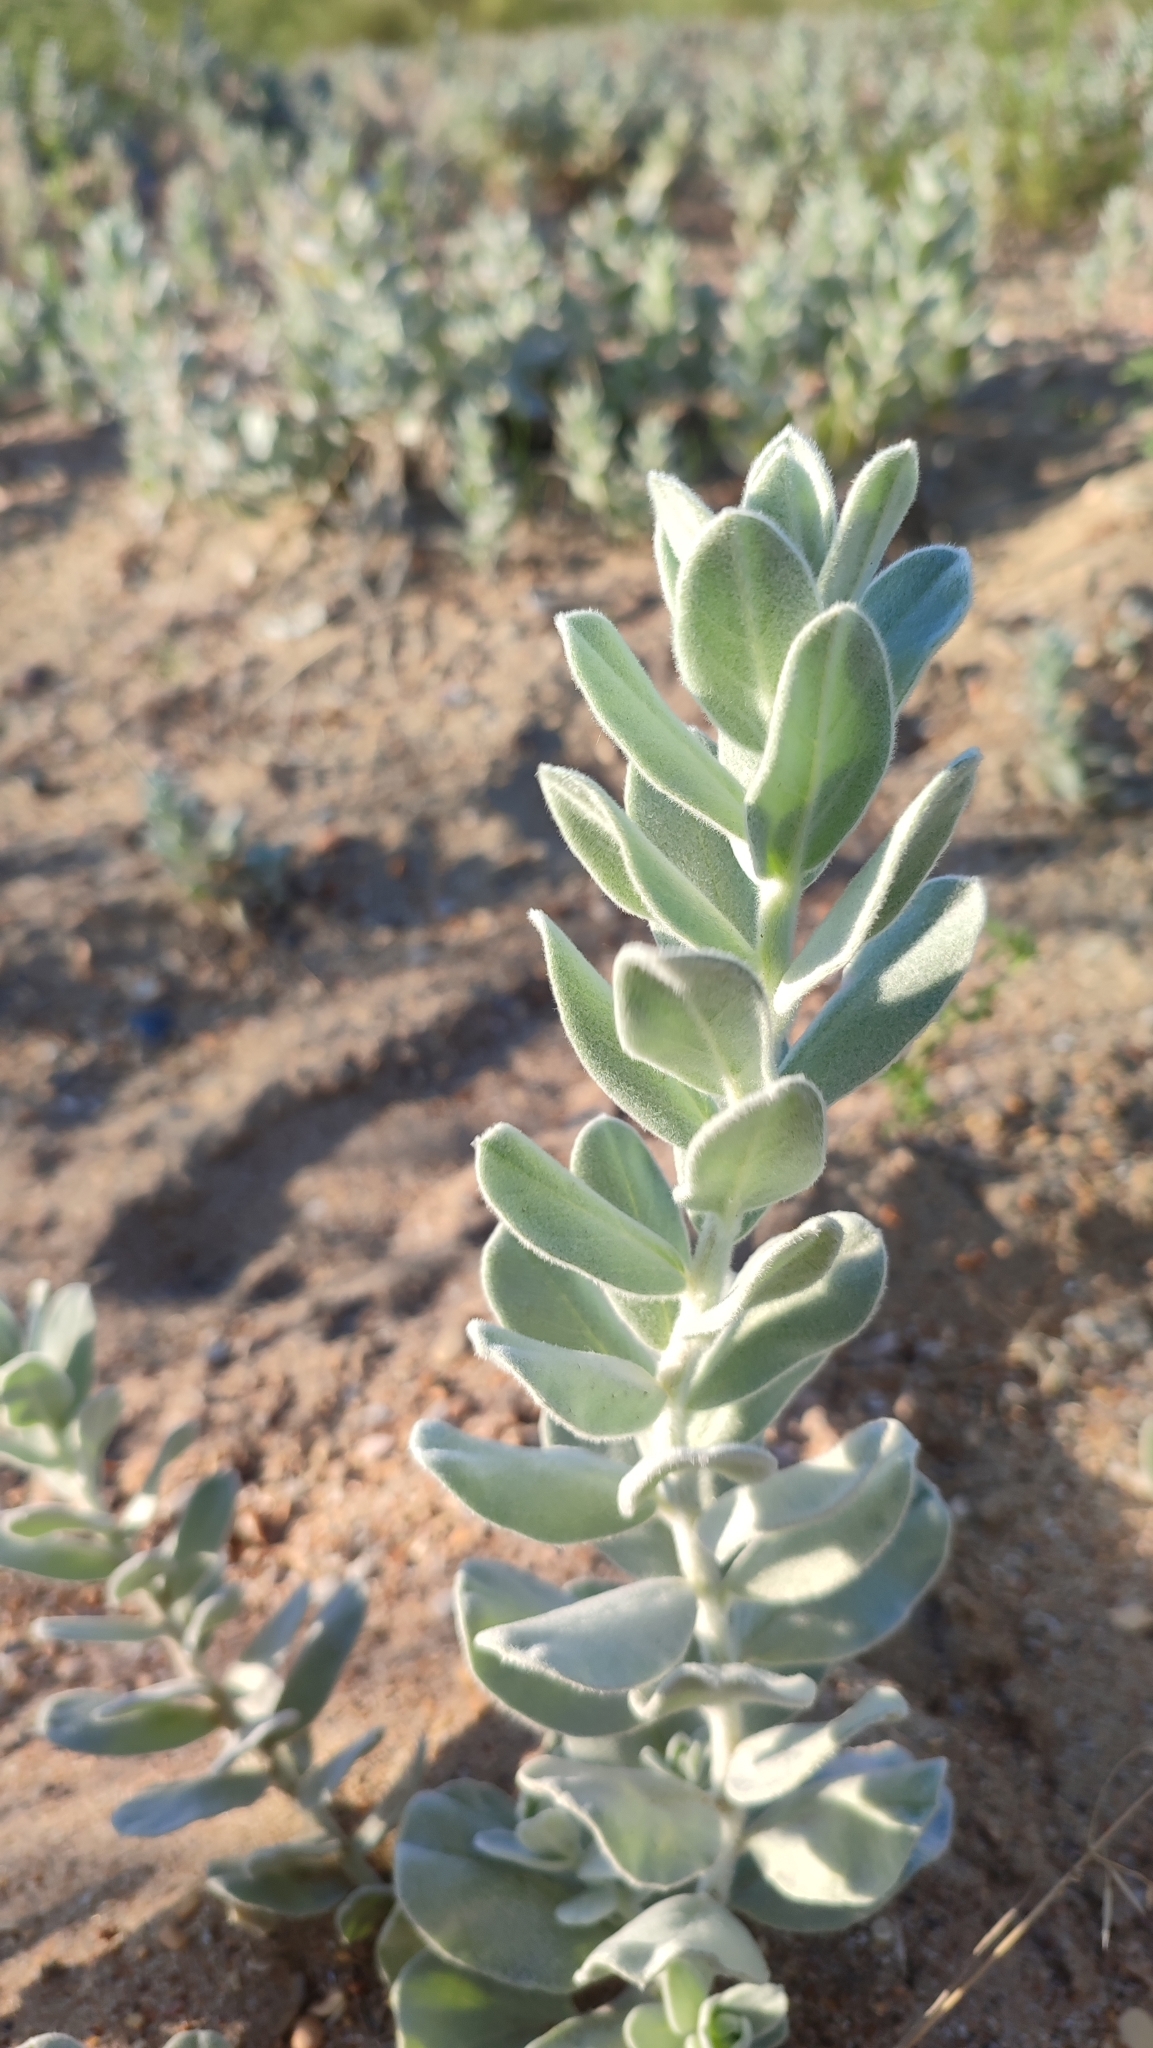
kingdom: Plantae
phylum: Tracheophyta
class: Magnoliopsida
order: Solanales
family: Convolvulaceae
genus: Convolvulus
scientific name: Convolvulus persicus
